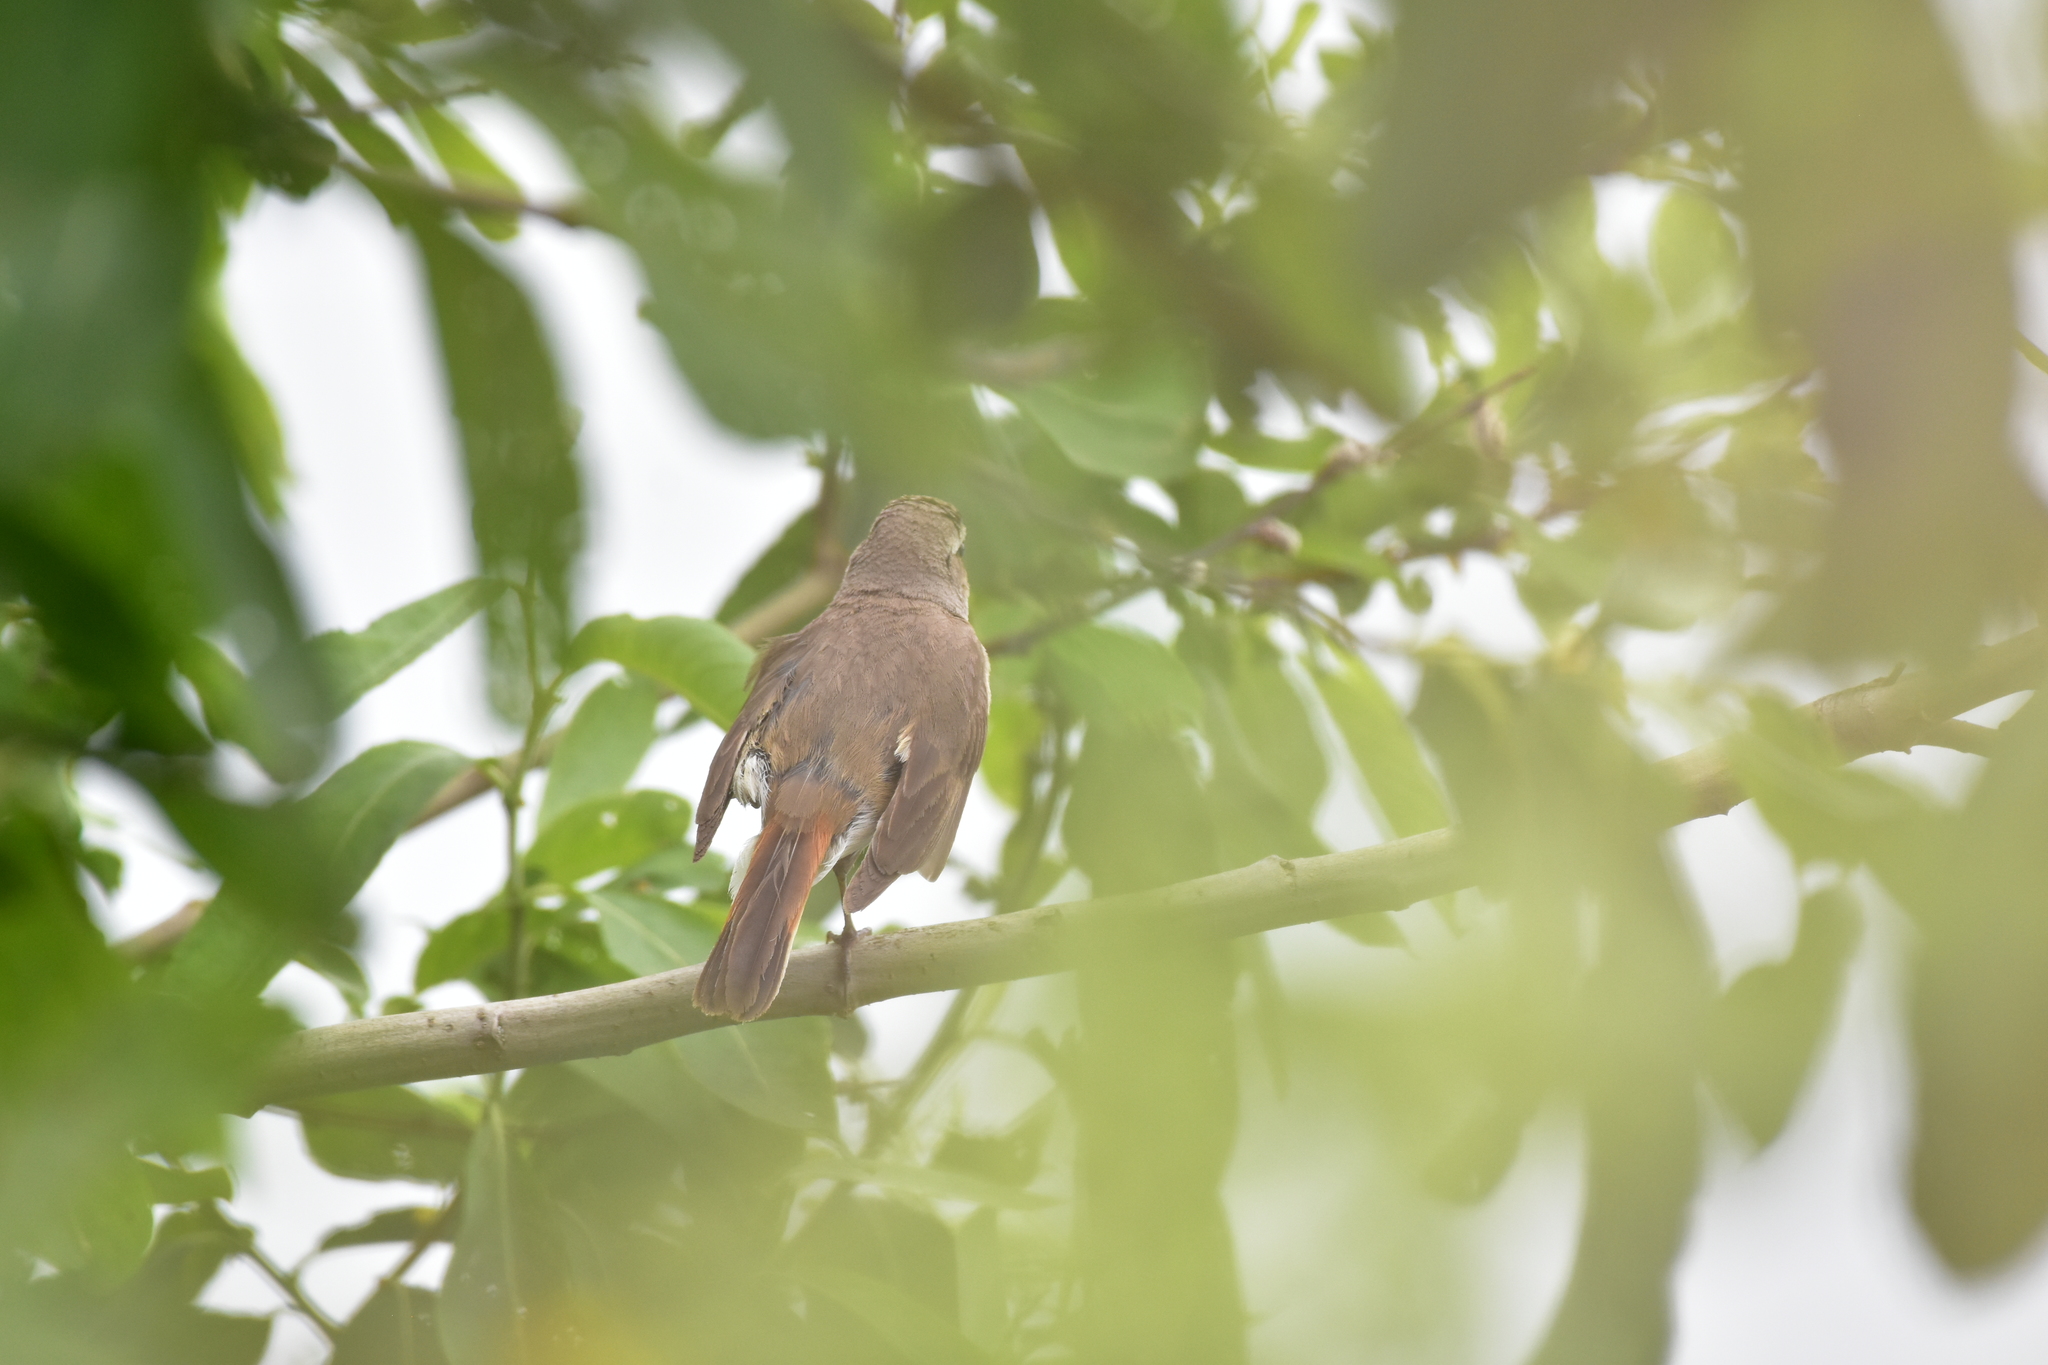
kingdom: Animalia
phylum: Chordata
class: Aves
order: Passeriformes
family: Muscicapidae
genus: Phoenicurus
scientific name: Phoenicurus phoenicurus
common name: Common redstart
